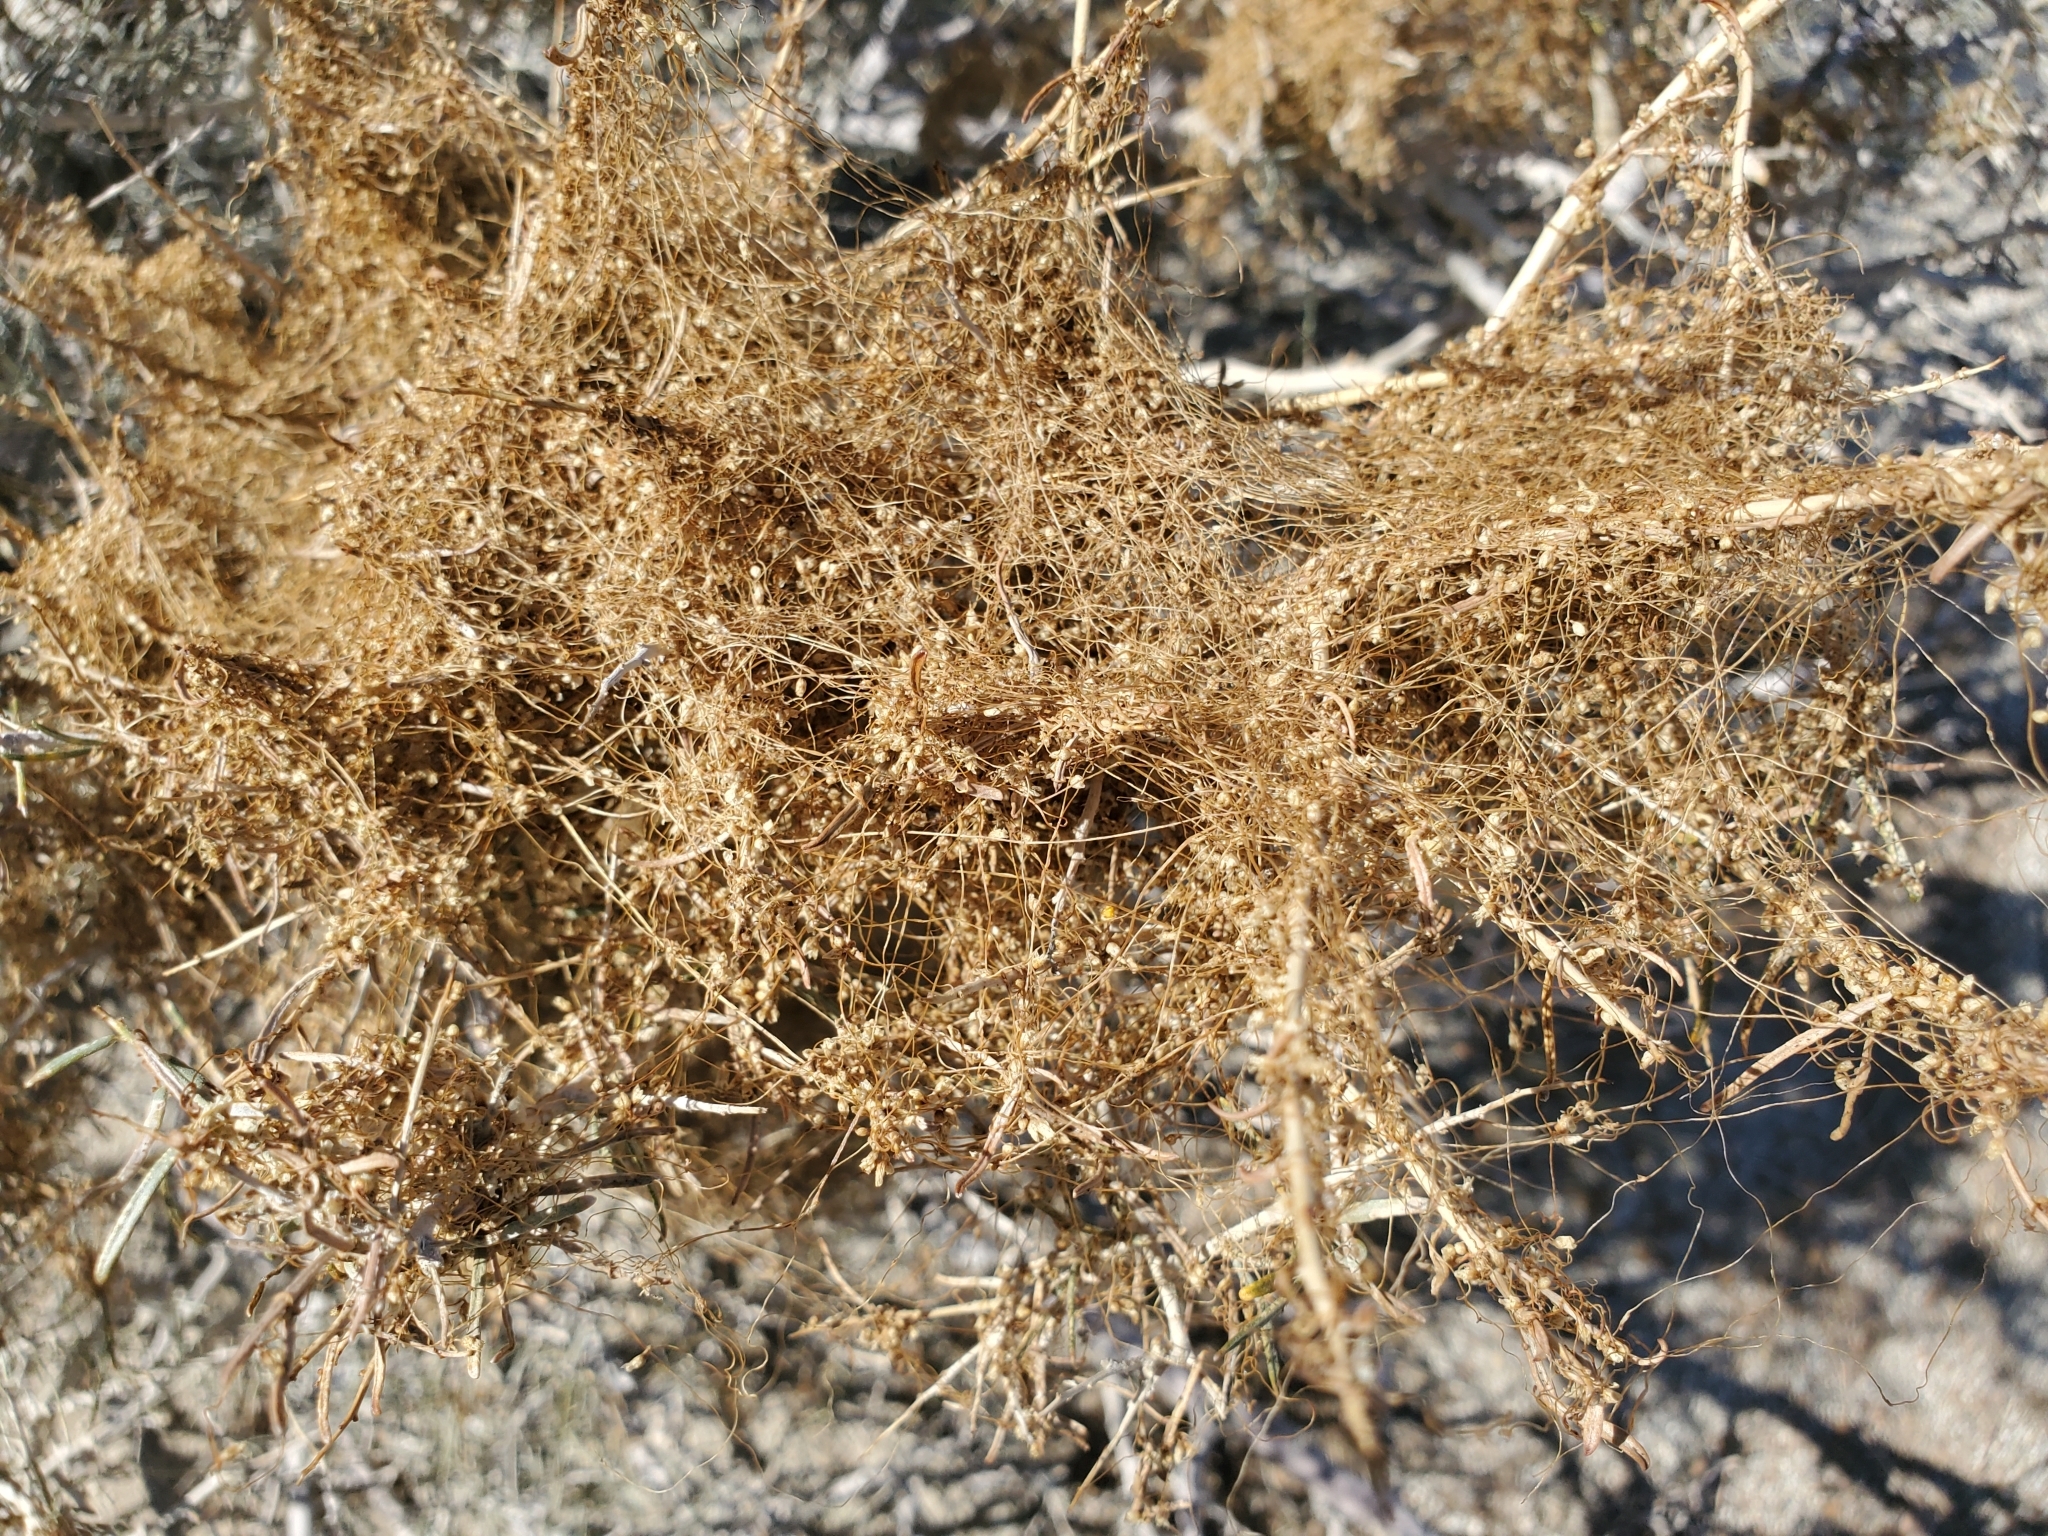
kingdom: Plantae
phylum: Tracheophyta
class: Magnoliopsida
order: Solanales
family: Convolvulaceae
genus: Cuscuta
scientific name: Cuscuta psorothamnensis
